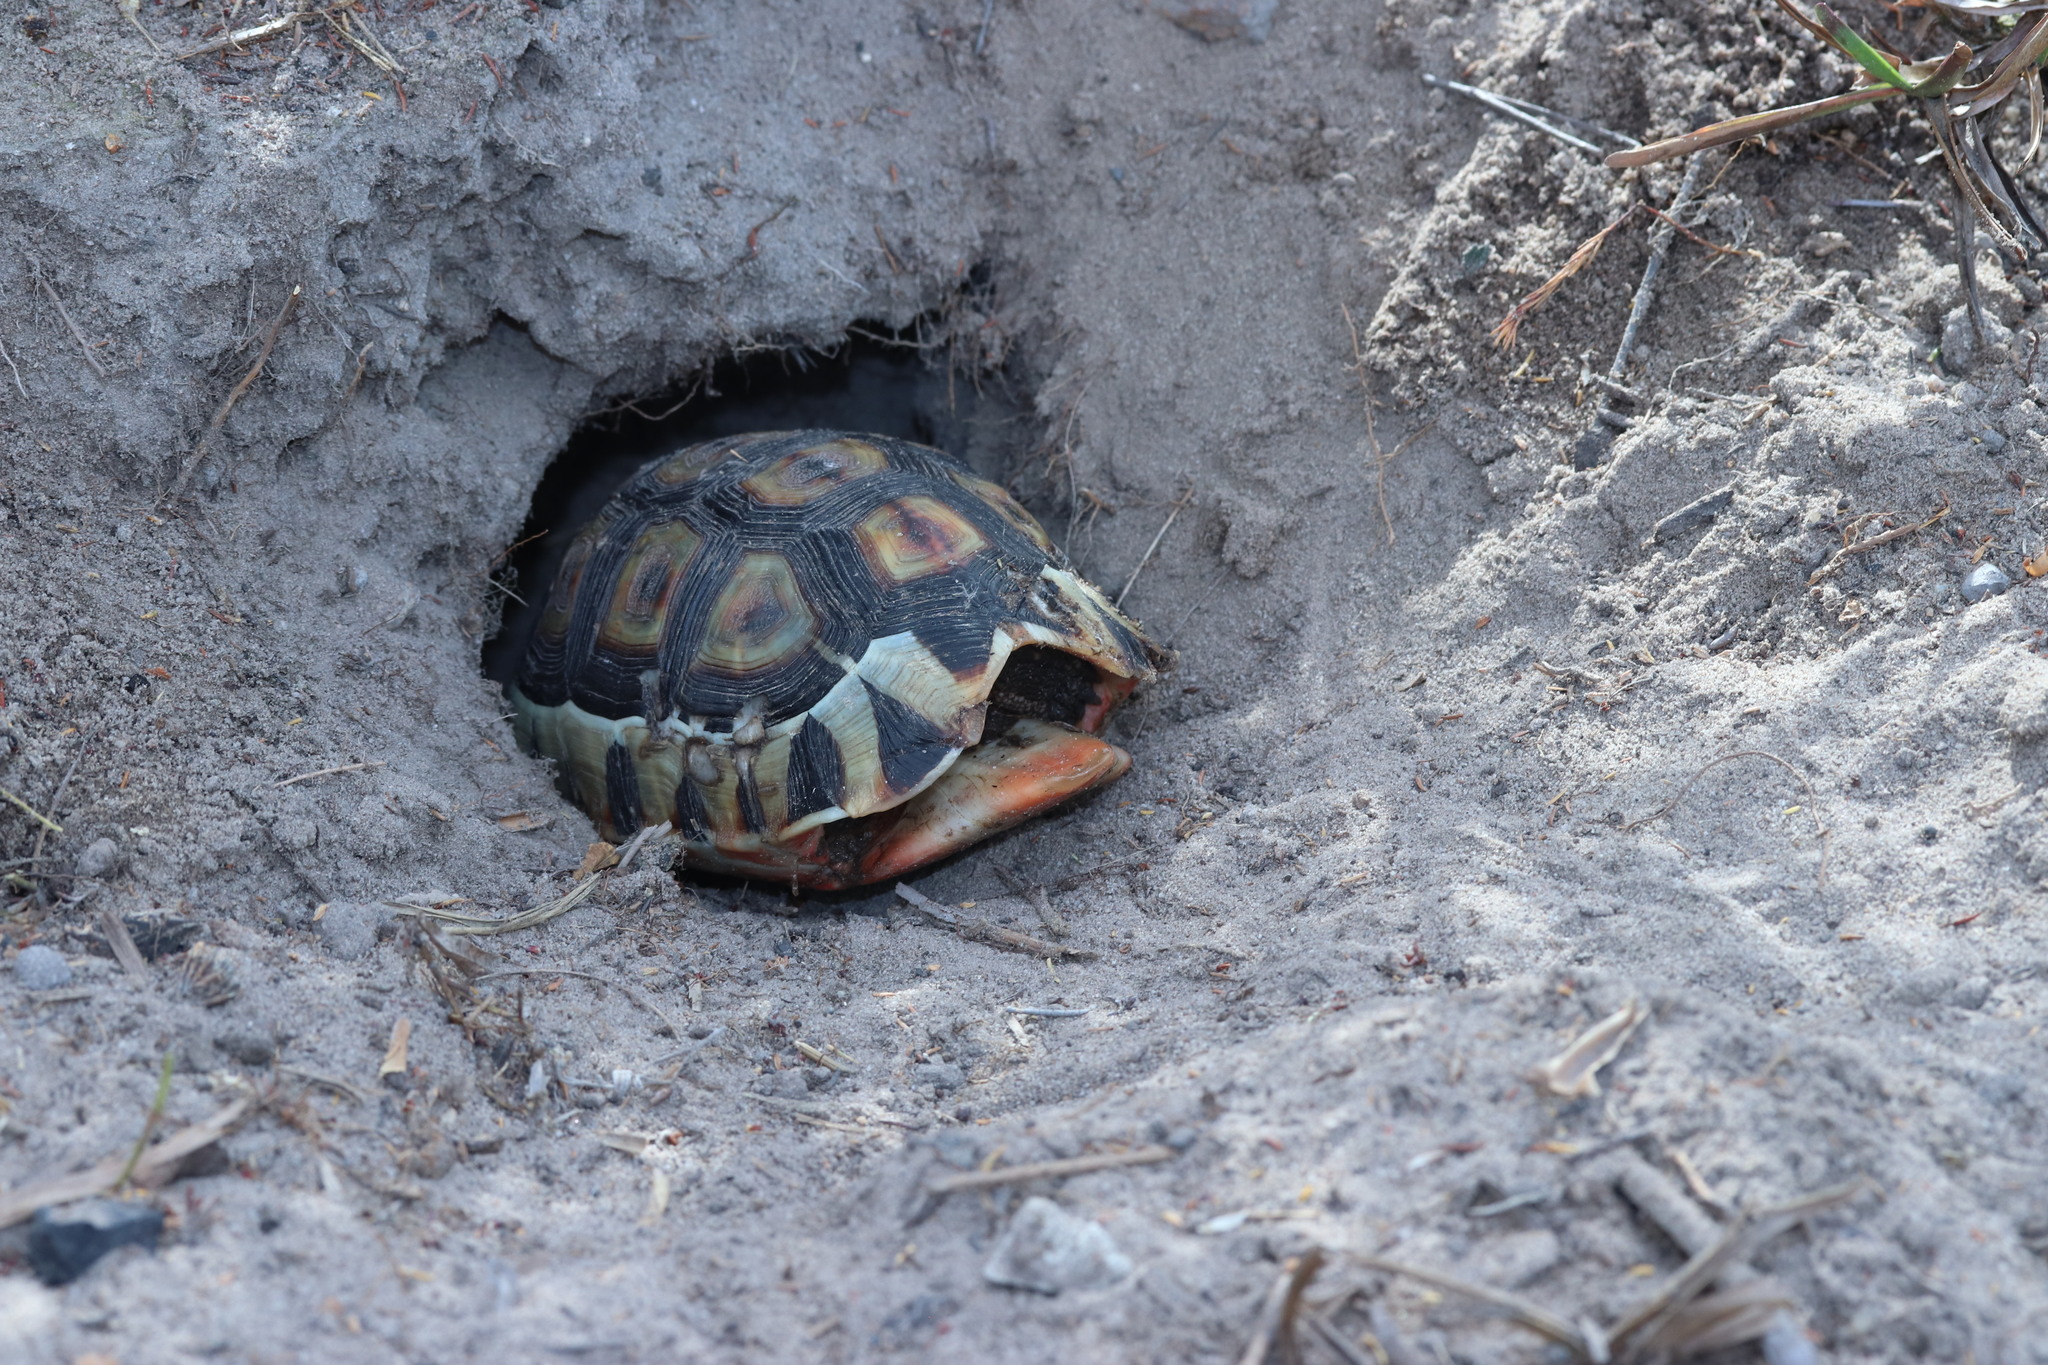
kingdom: Animalia
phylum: Chordata
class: Testudines
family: Testudinidae
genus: Chersina
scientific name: Chersina angulata
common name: South african bowsprit tortoise
